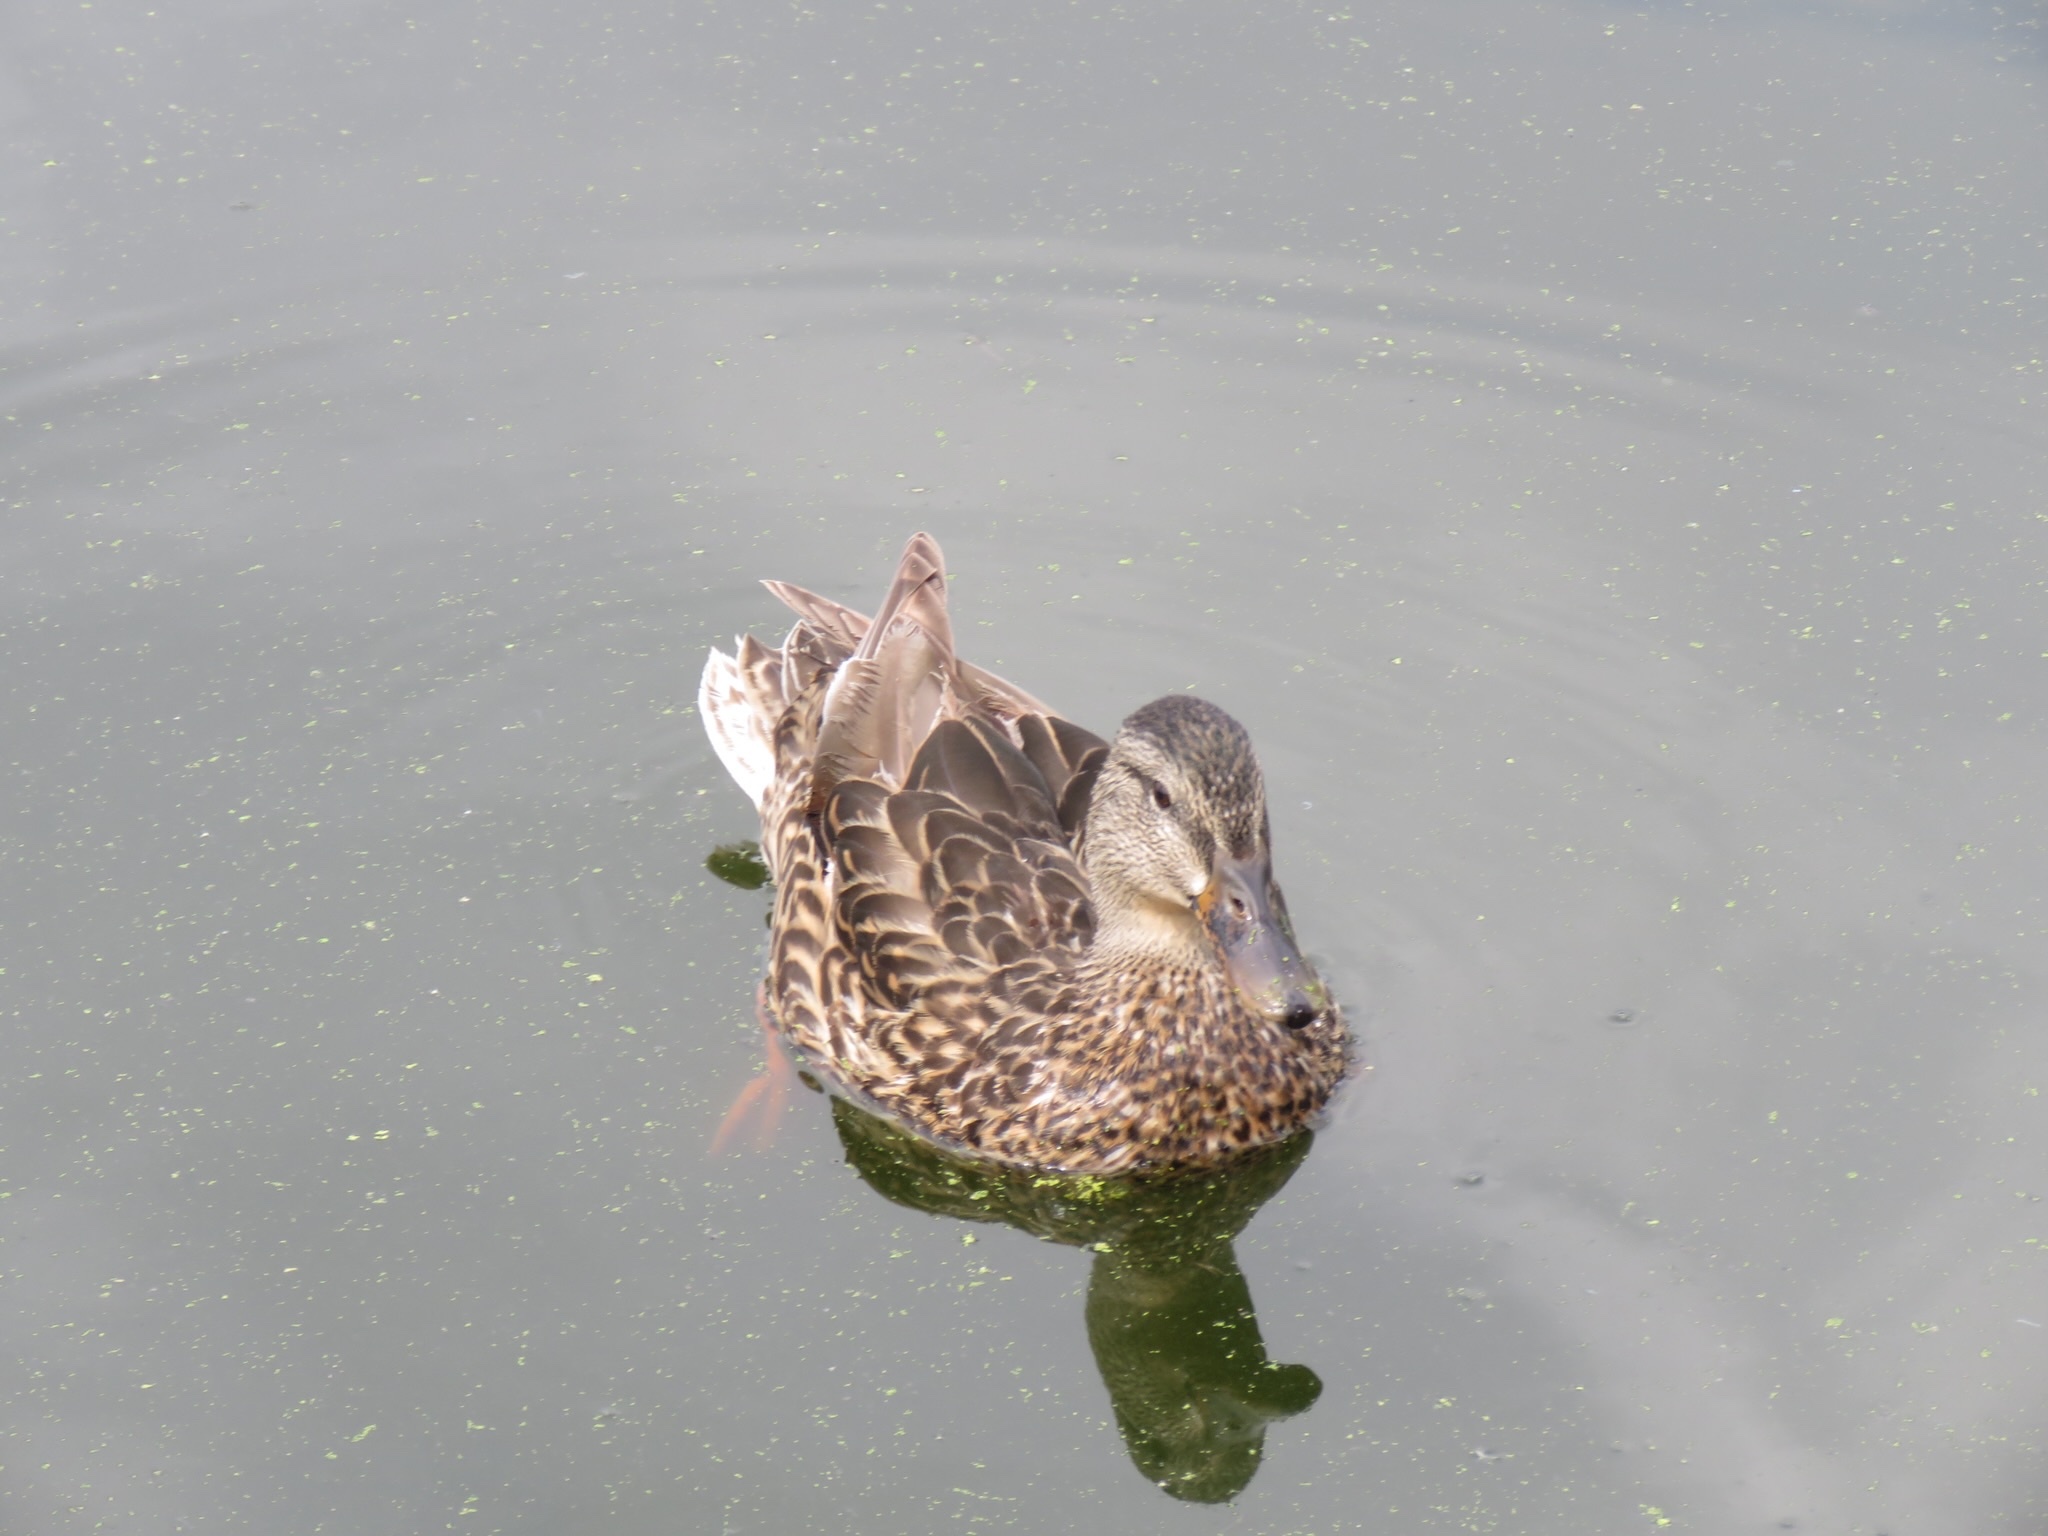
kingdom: Animalia
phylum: Chordata
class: Aves
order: Anseriformes
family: Anatidae
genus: Anas
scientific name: Anas platyrhynchos
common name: Mallard
